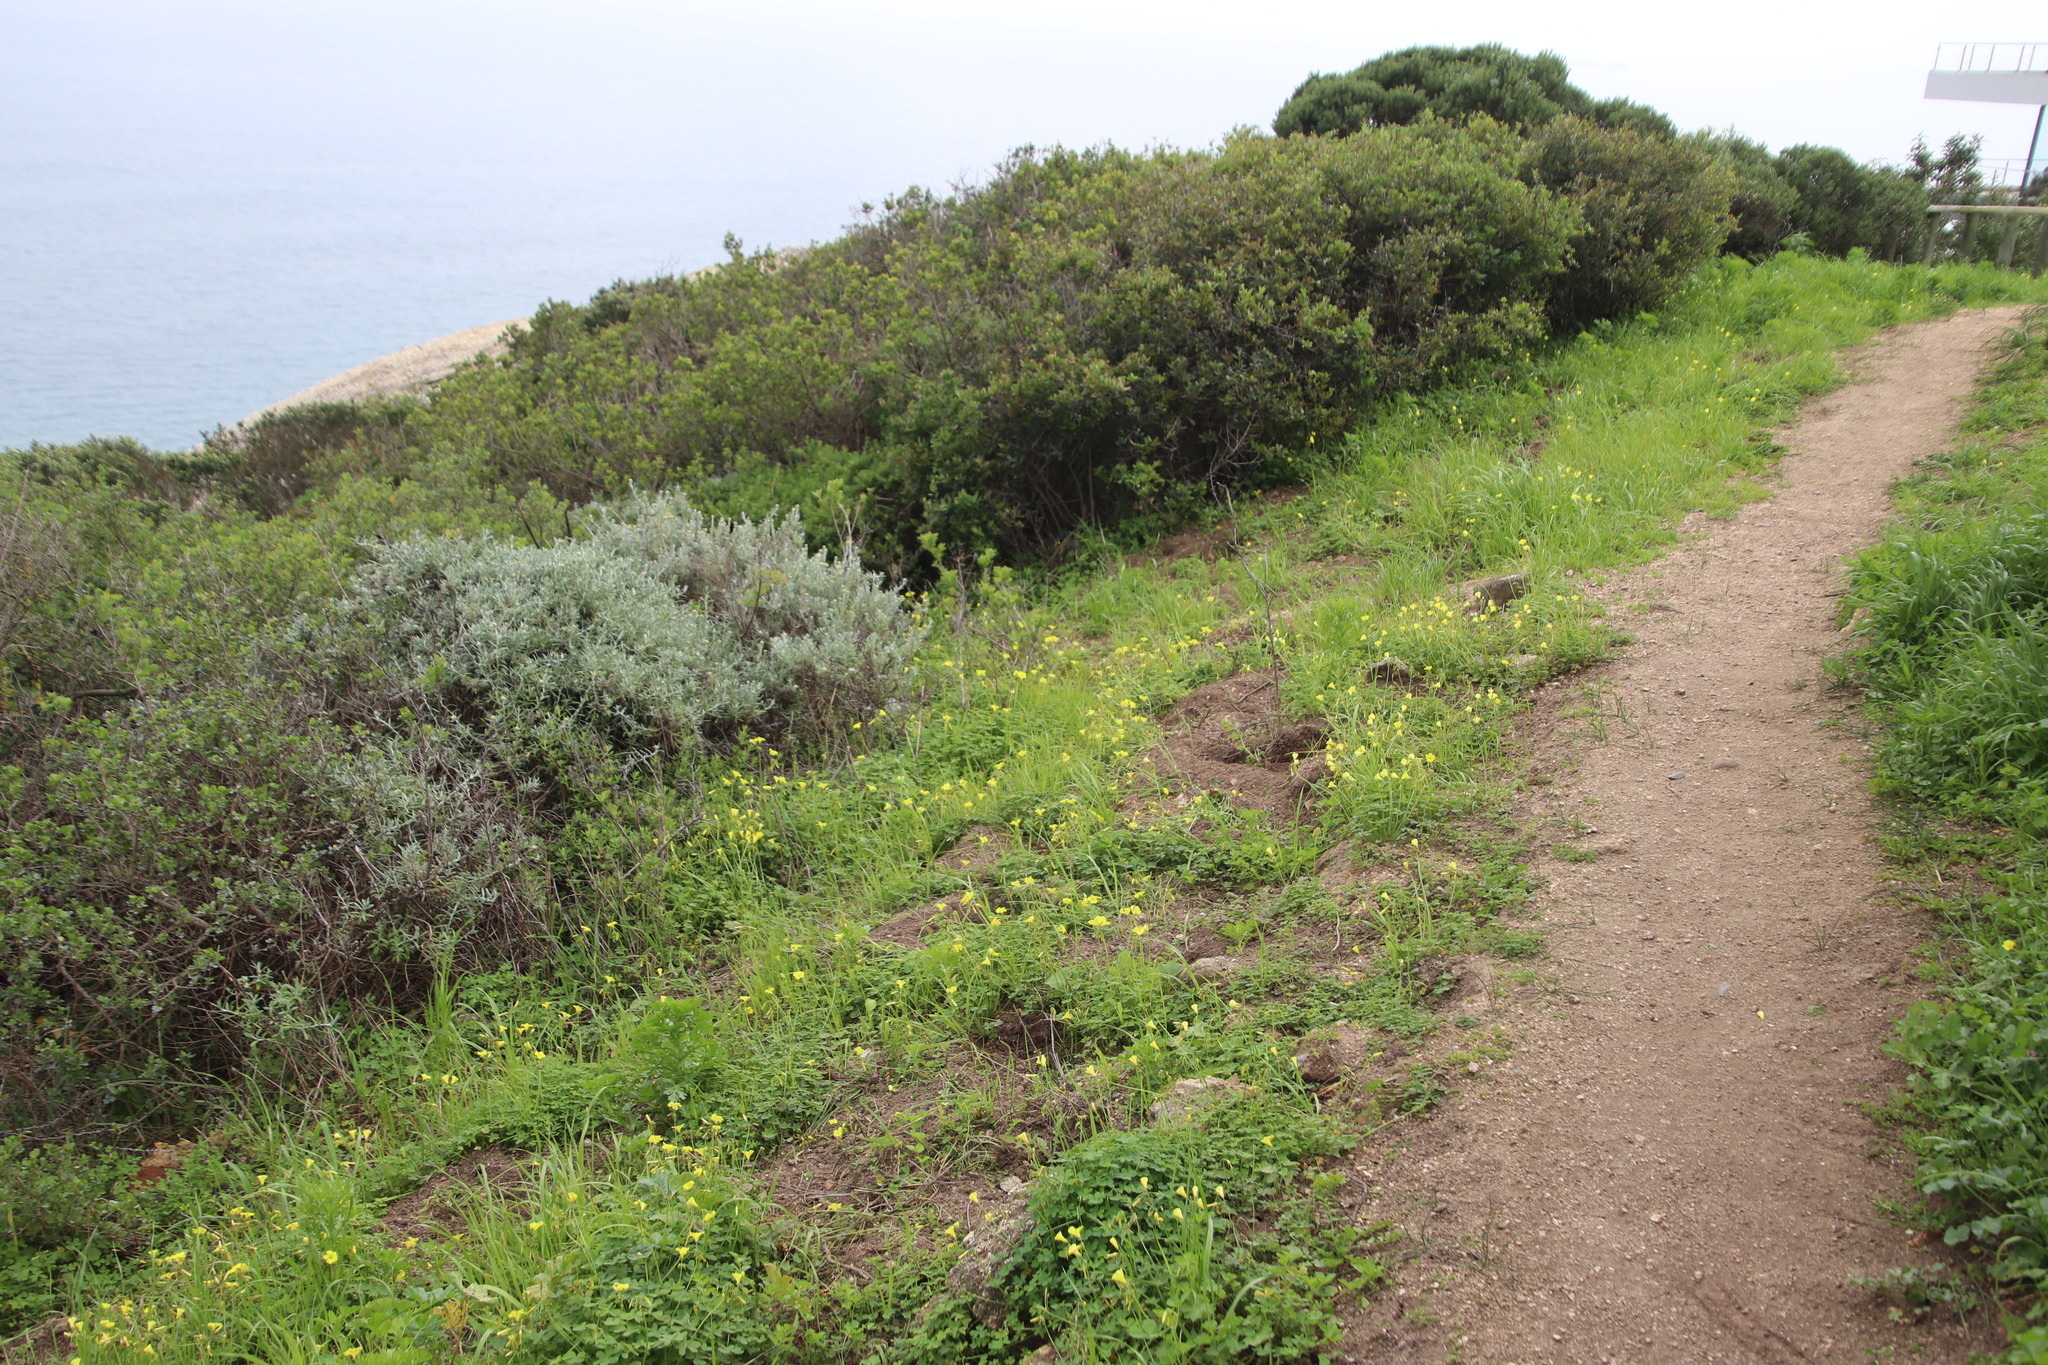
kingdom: Plantae
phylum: Tracheophyta
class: Magnoliopsida
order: Oxalidales
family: Oxalidaceae
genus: Oxalis
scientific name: Oxalis pes-caprae
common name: Bermuda-buttercup
